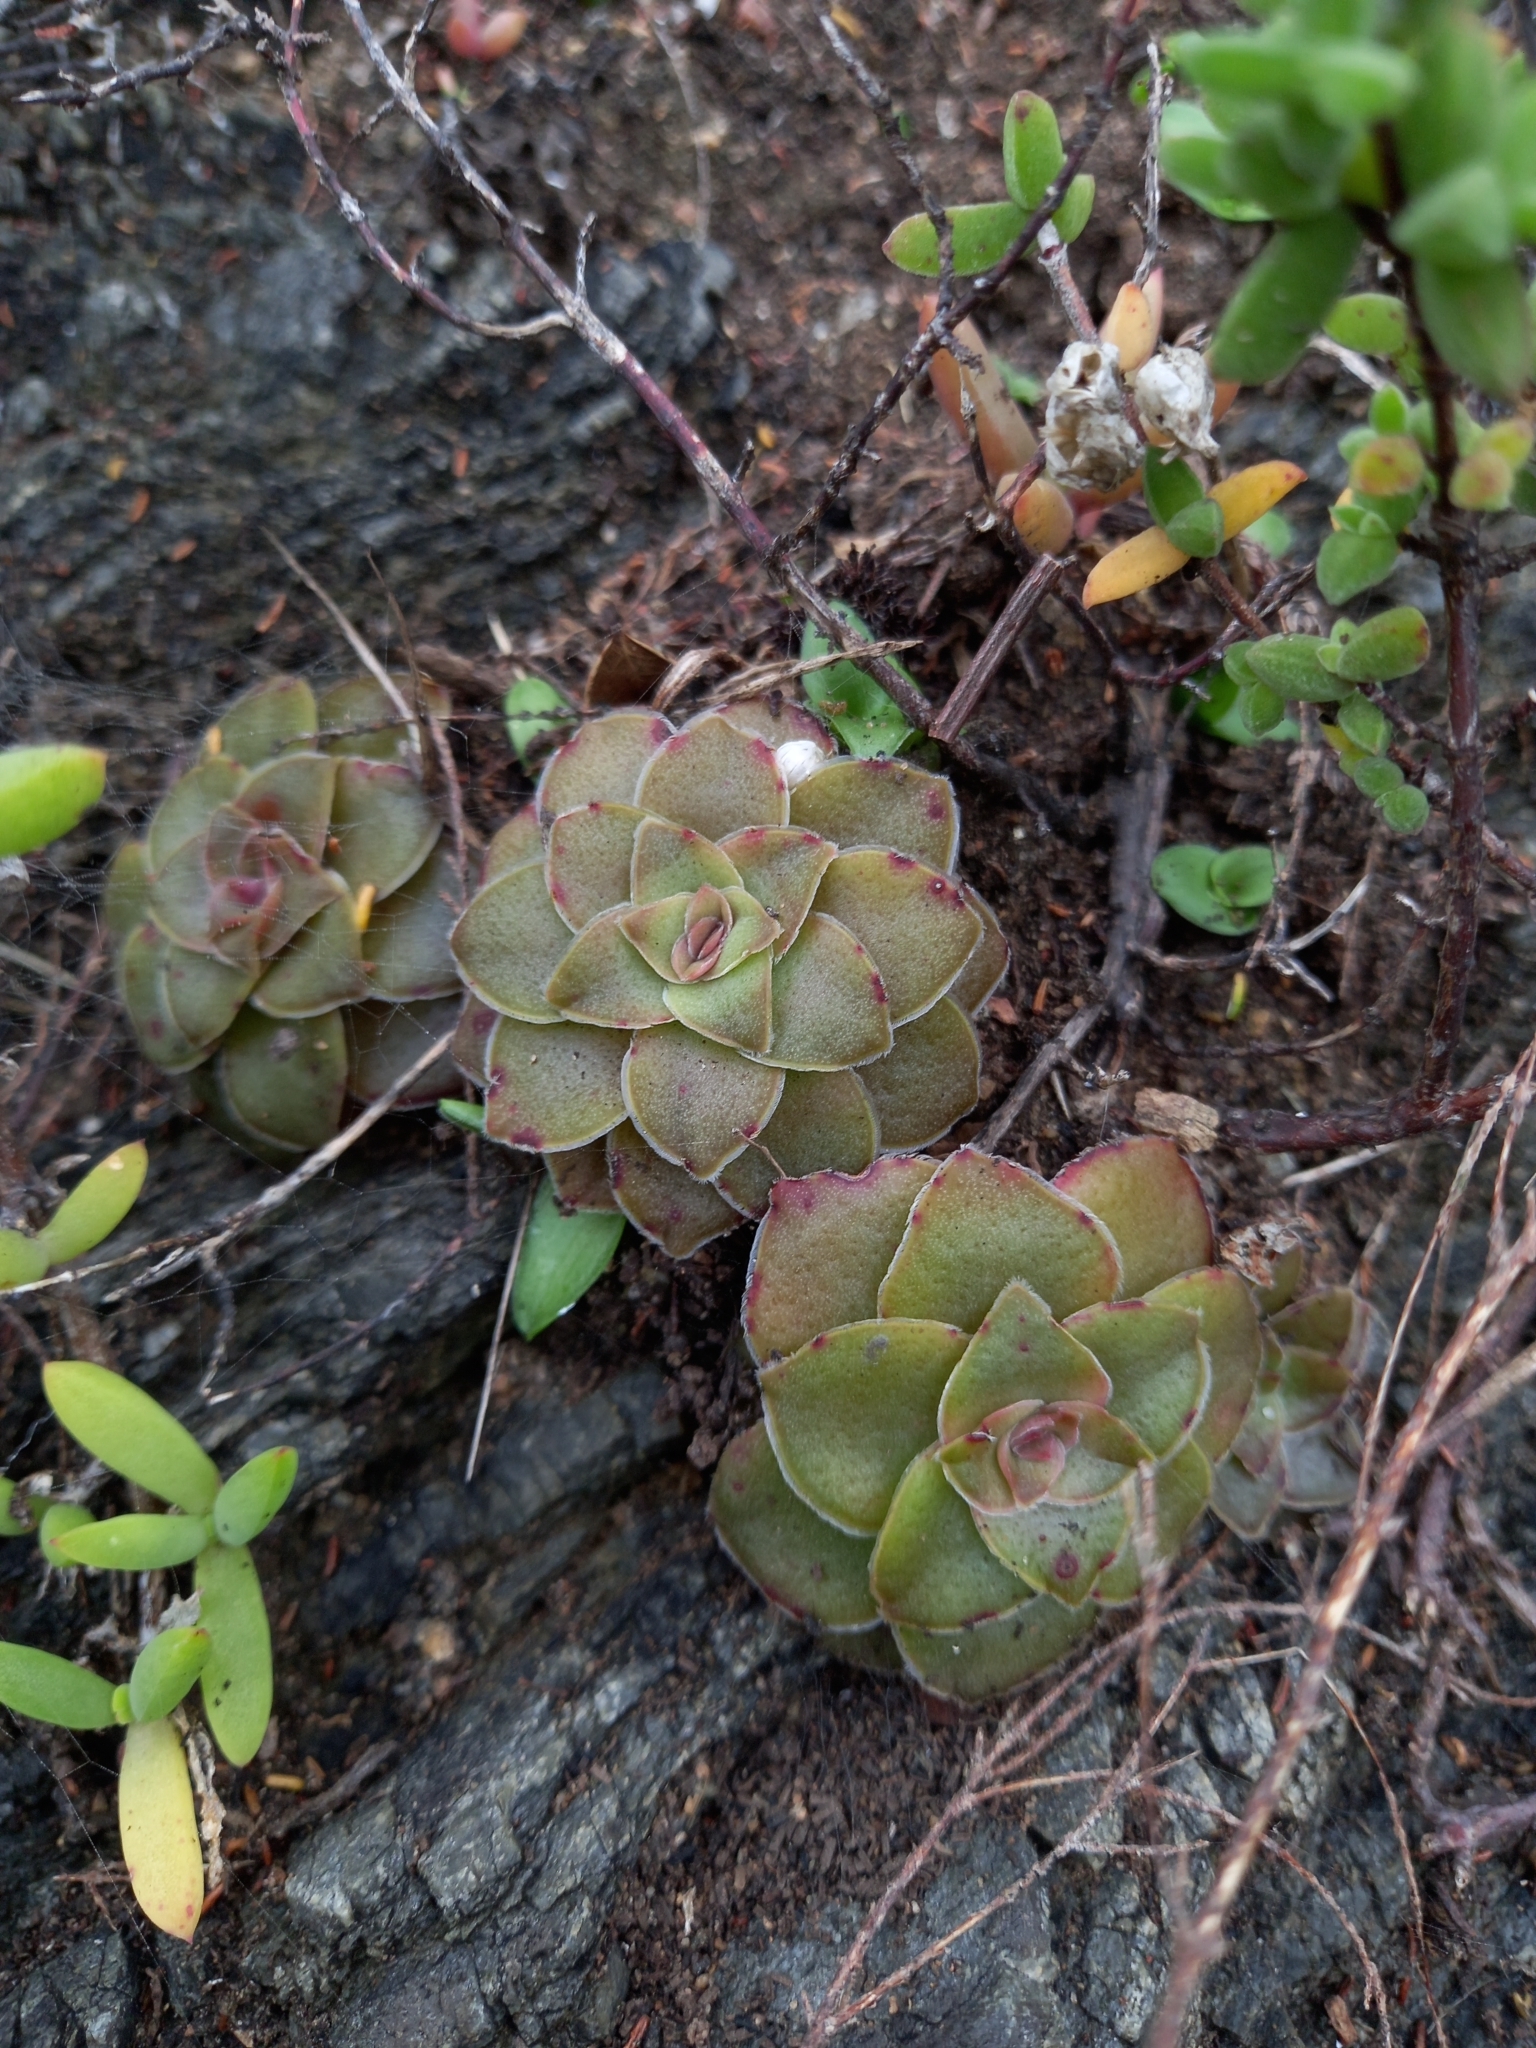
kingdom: Plantae
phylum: Tracheophyta
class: Magnoliopsida
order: Saxifragales
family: Crassulaceae
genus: Crassula
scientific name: Crassula orbicularis
